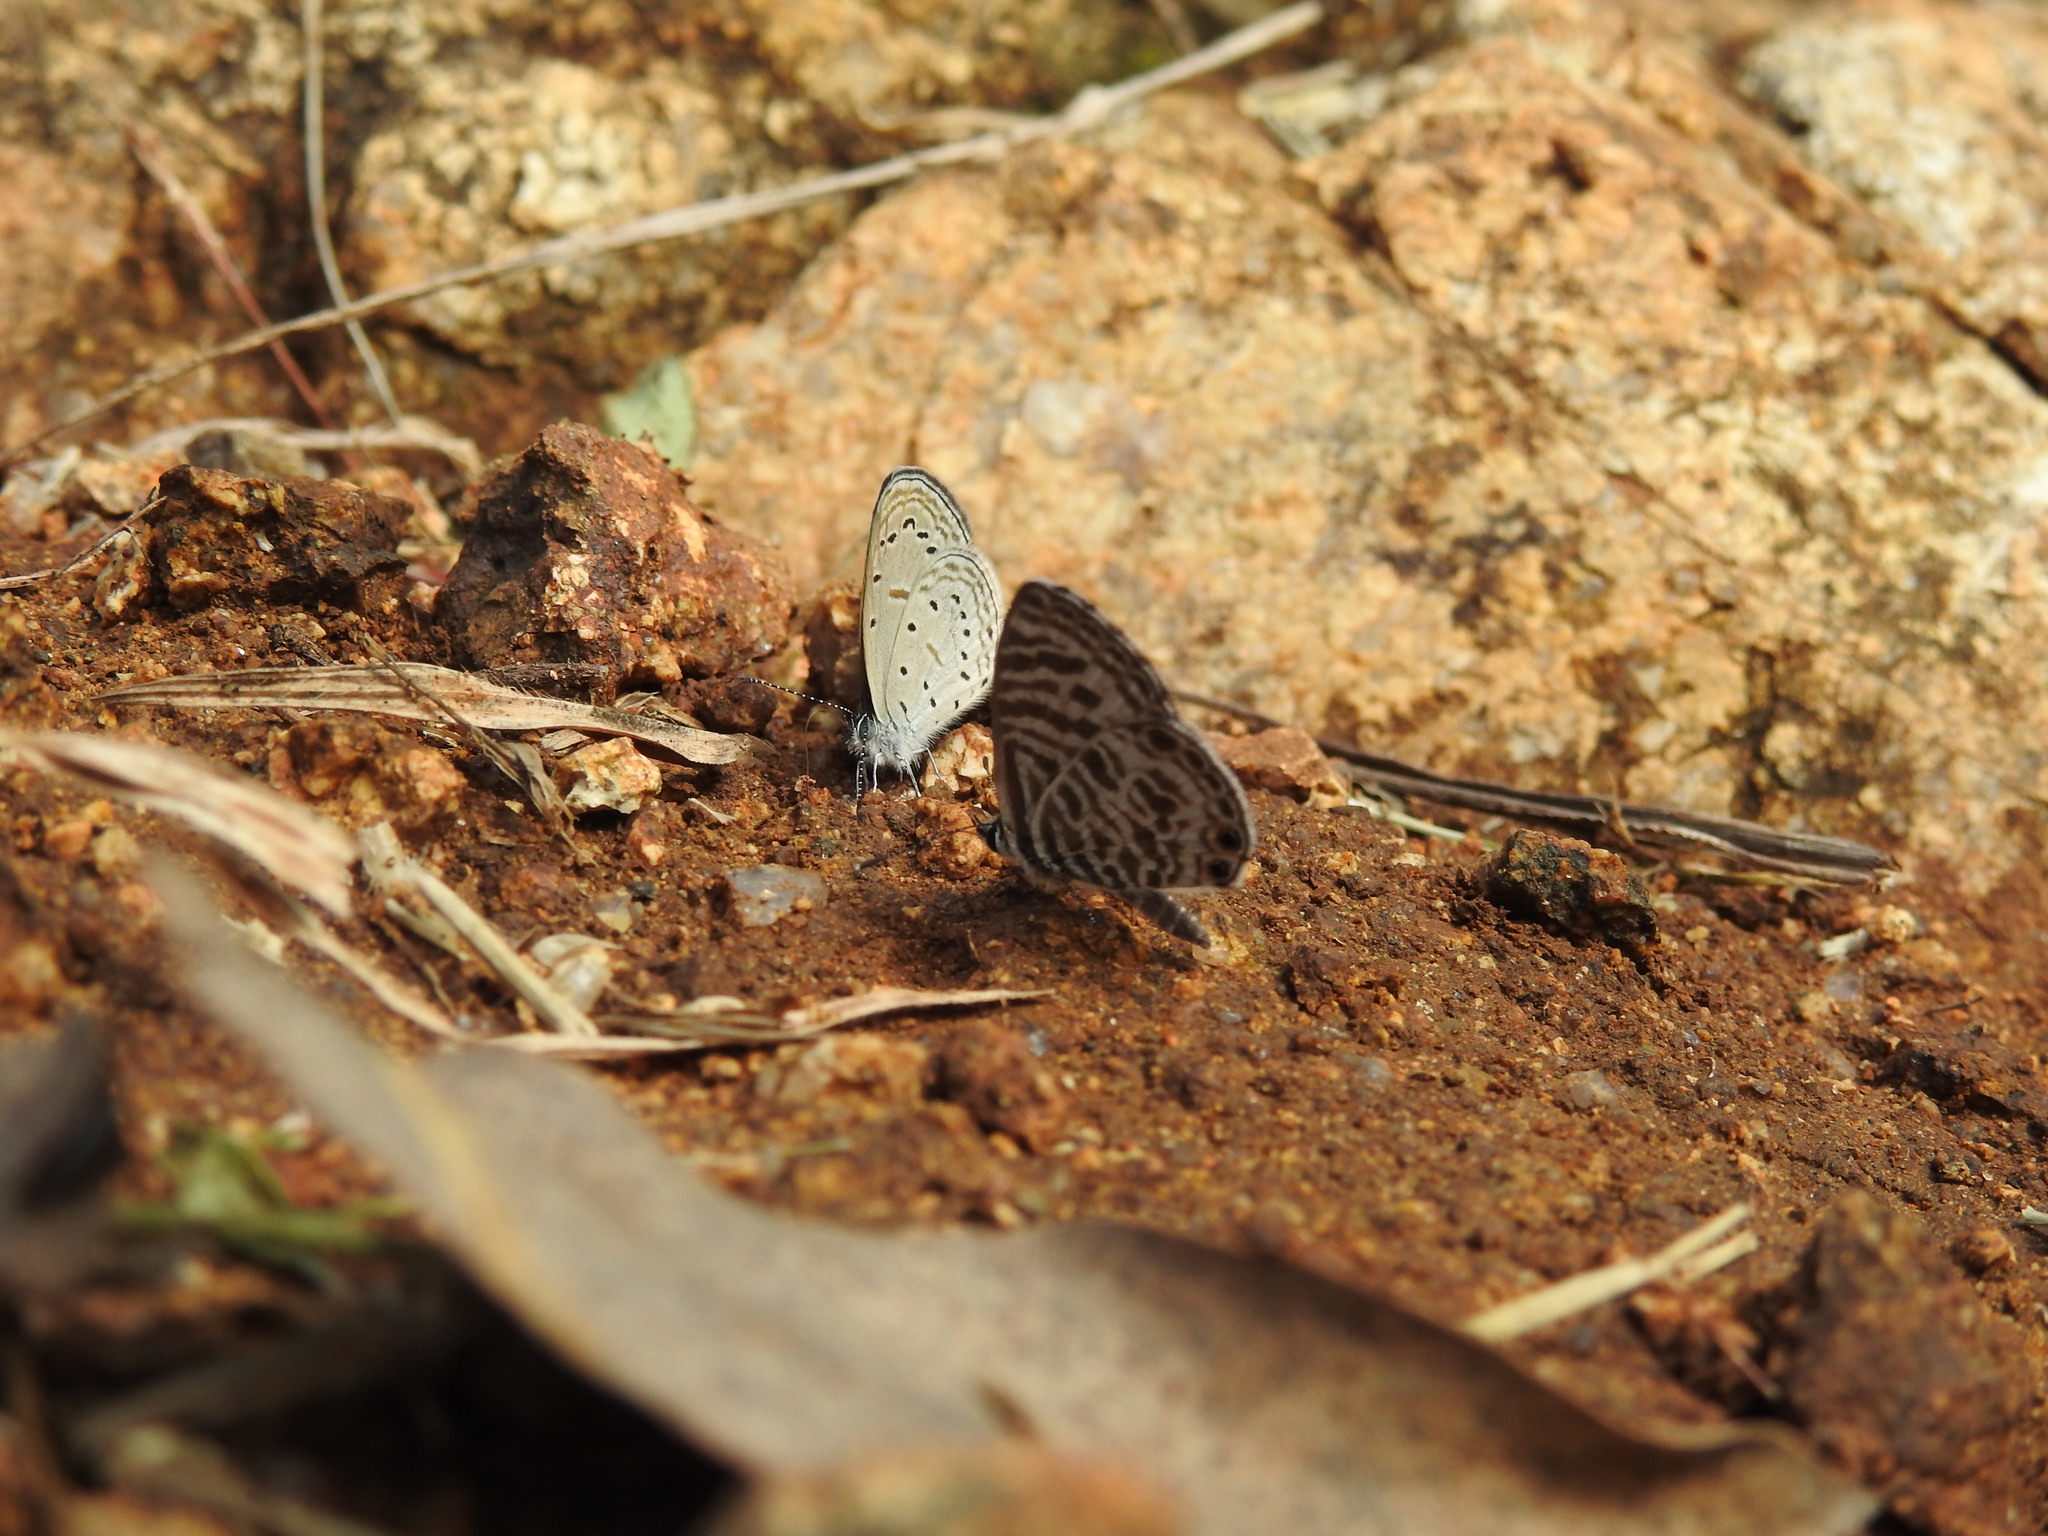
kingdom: Animalia
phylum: Arthropoda
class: Insecta
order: Lepidoptera
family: Lycaenidae
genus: Zizula
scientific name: Zizula hylax
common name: Gaika blue
